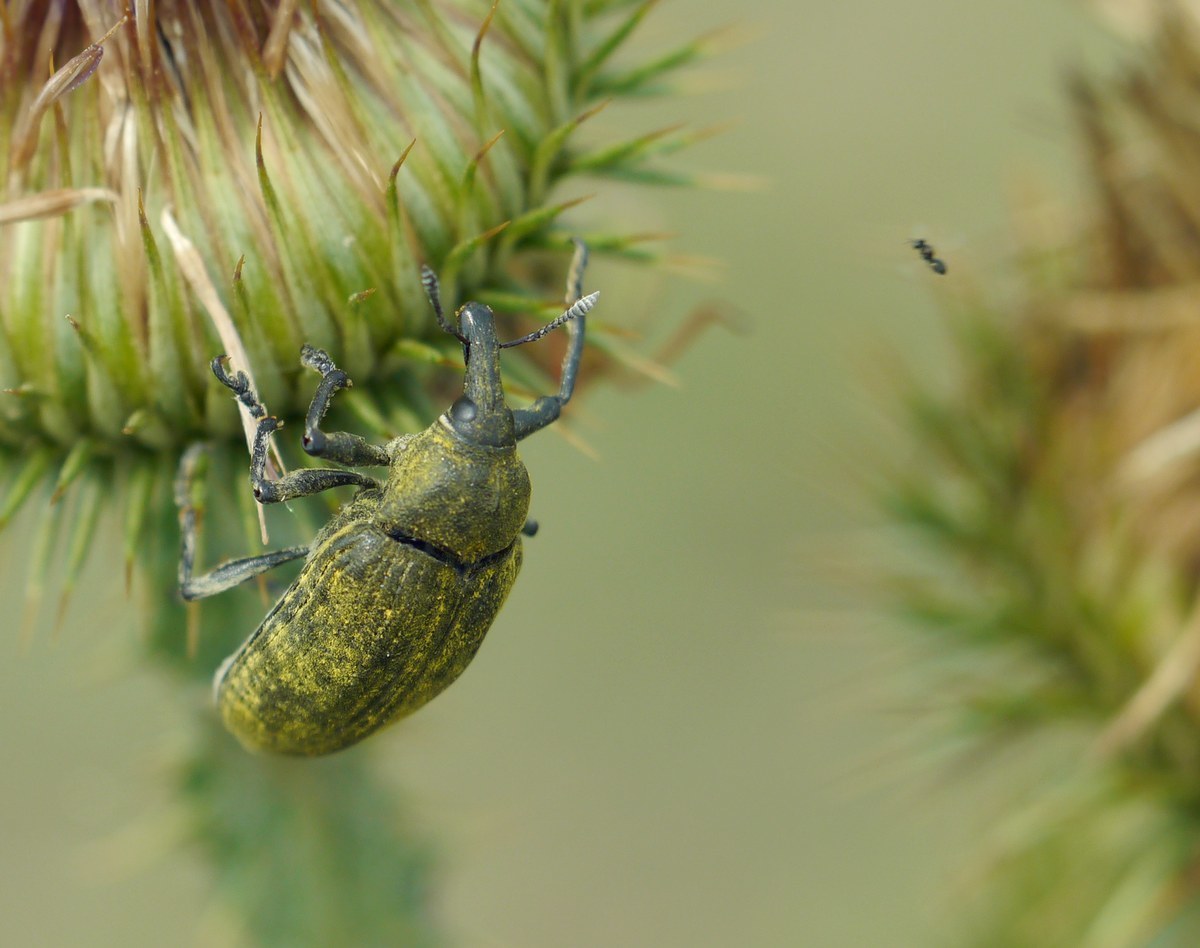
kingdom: Animalia
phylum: Arthropoda
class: Insecta
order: Coleoptera
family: Curculionidae
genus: Larinus
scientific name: Larinus latus
